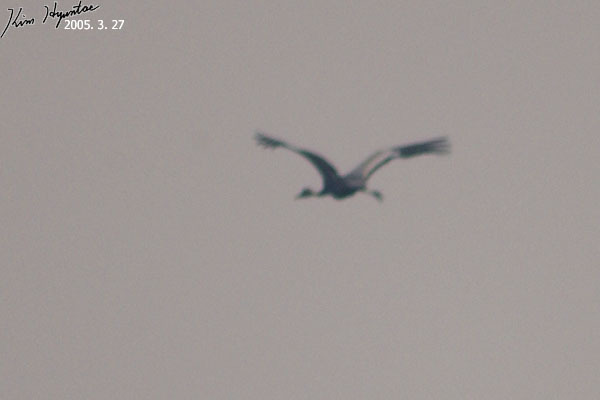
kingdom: Animalia
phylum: Chordata
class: Aves
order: Gruiformes
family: Gruidae
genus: Grus
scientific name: Grus vipio
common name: White-naped crane
